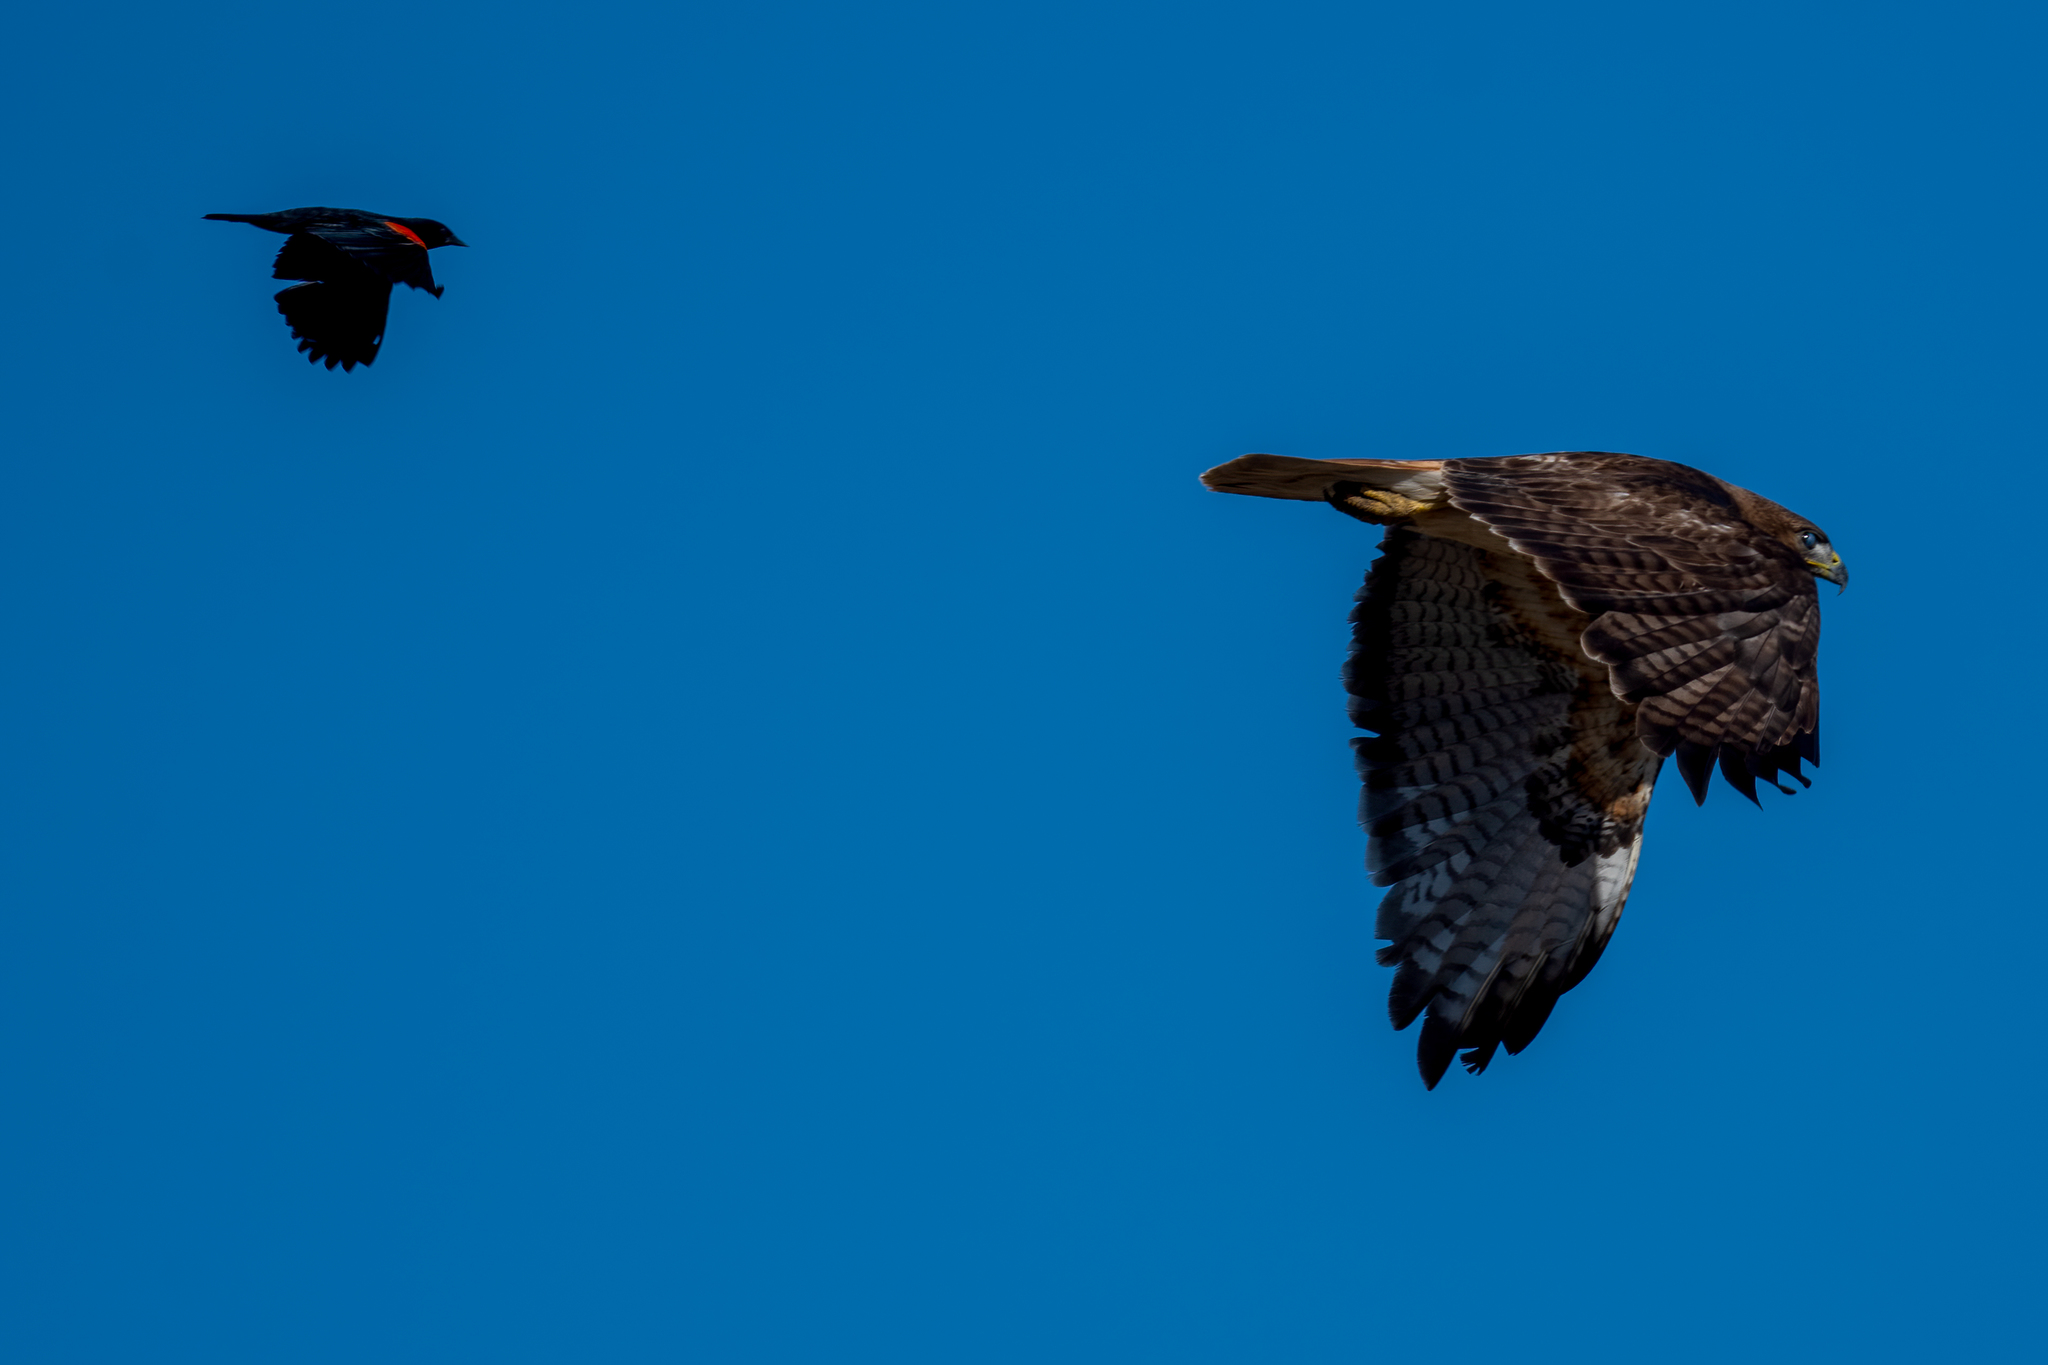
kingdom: Animalia
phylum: Chordata
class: Aves
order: Accipitriformes
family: Accipitridae
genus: Buteo
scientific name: Buteo jamaicensis
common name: Red-tailed hawk
